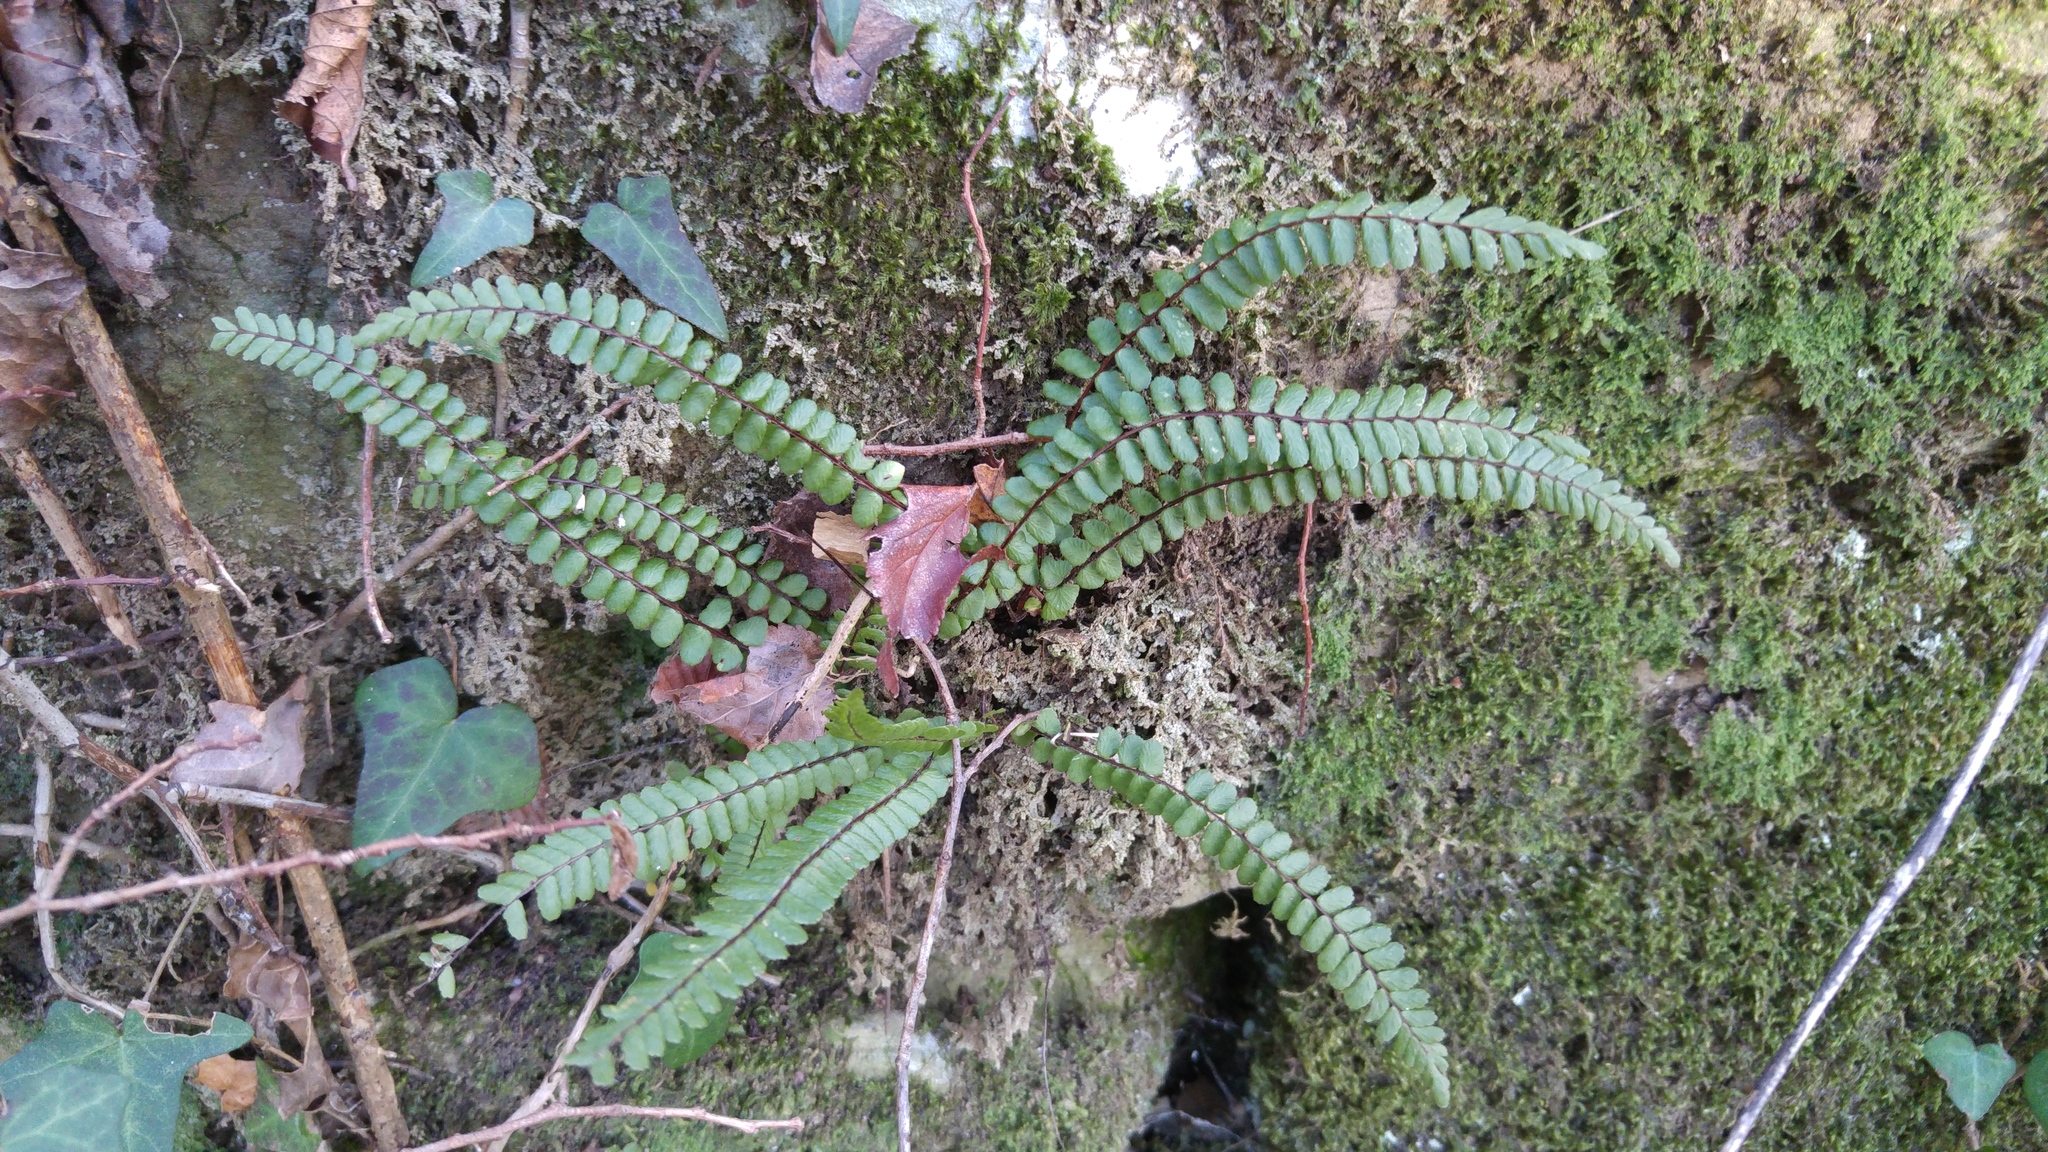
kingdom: Plantae
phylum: Tracheophyta
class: Polypodiopsida
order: Polypodiales
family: Aspleniaceae
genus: Asplenium
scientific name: Asplenium trichomanes
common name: Maidenhair spleenwort
